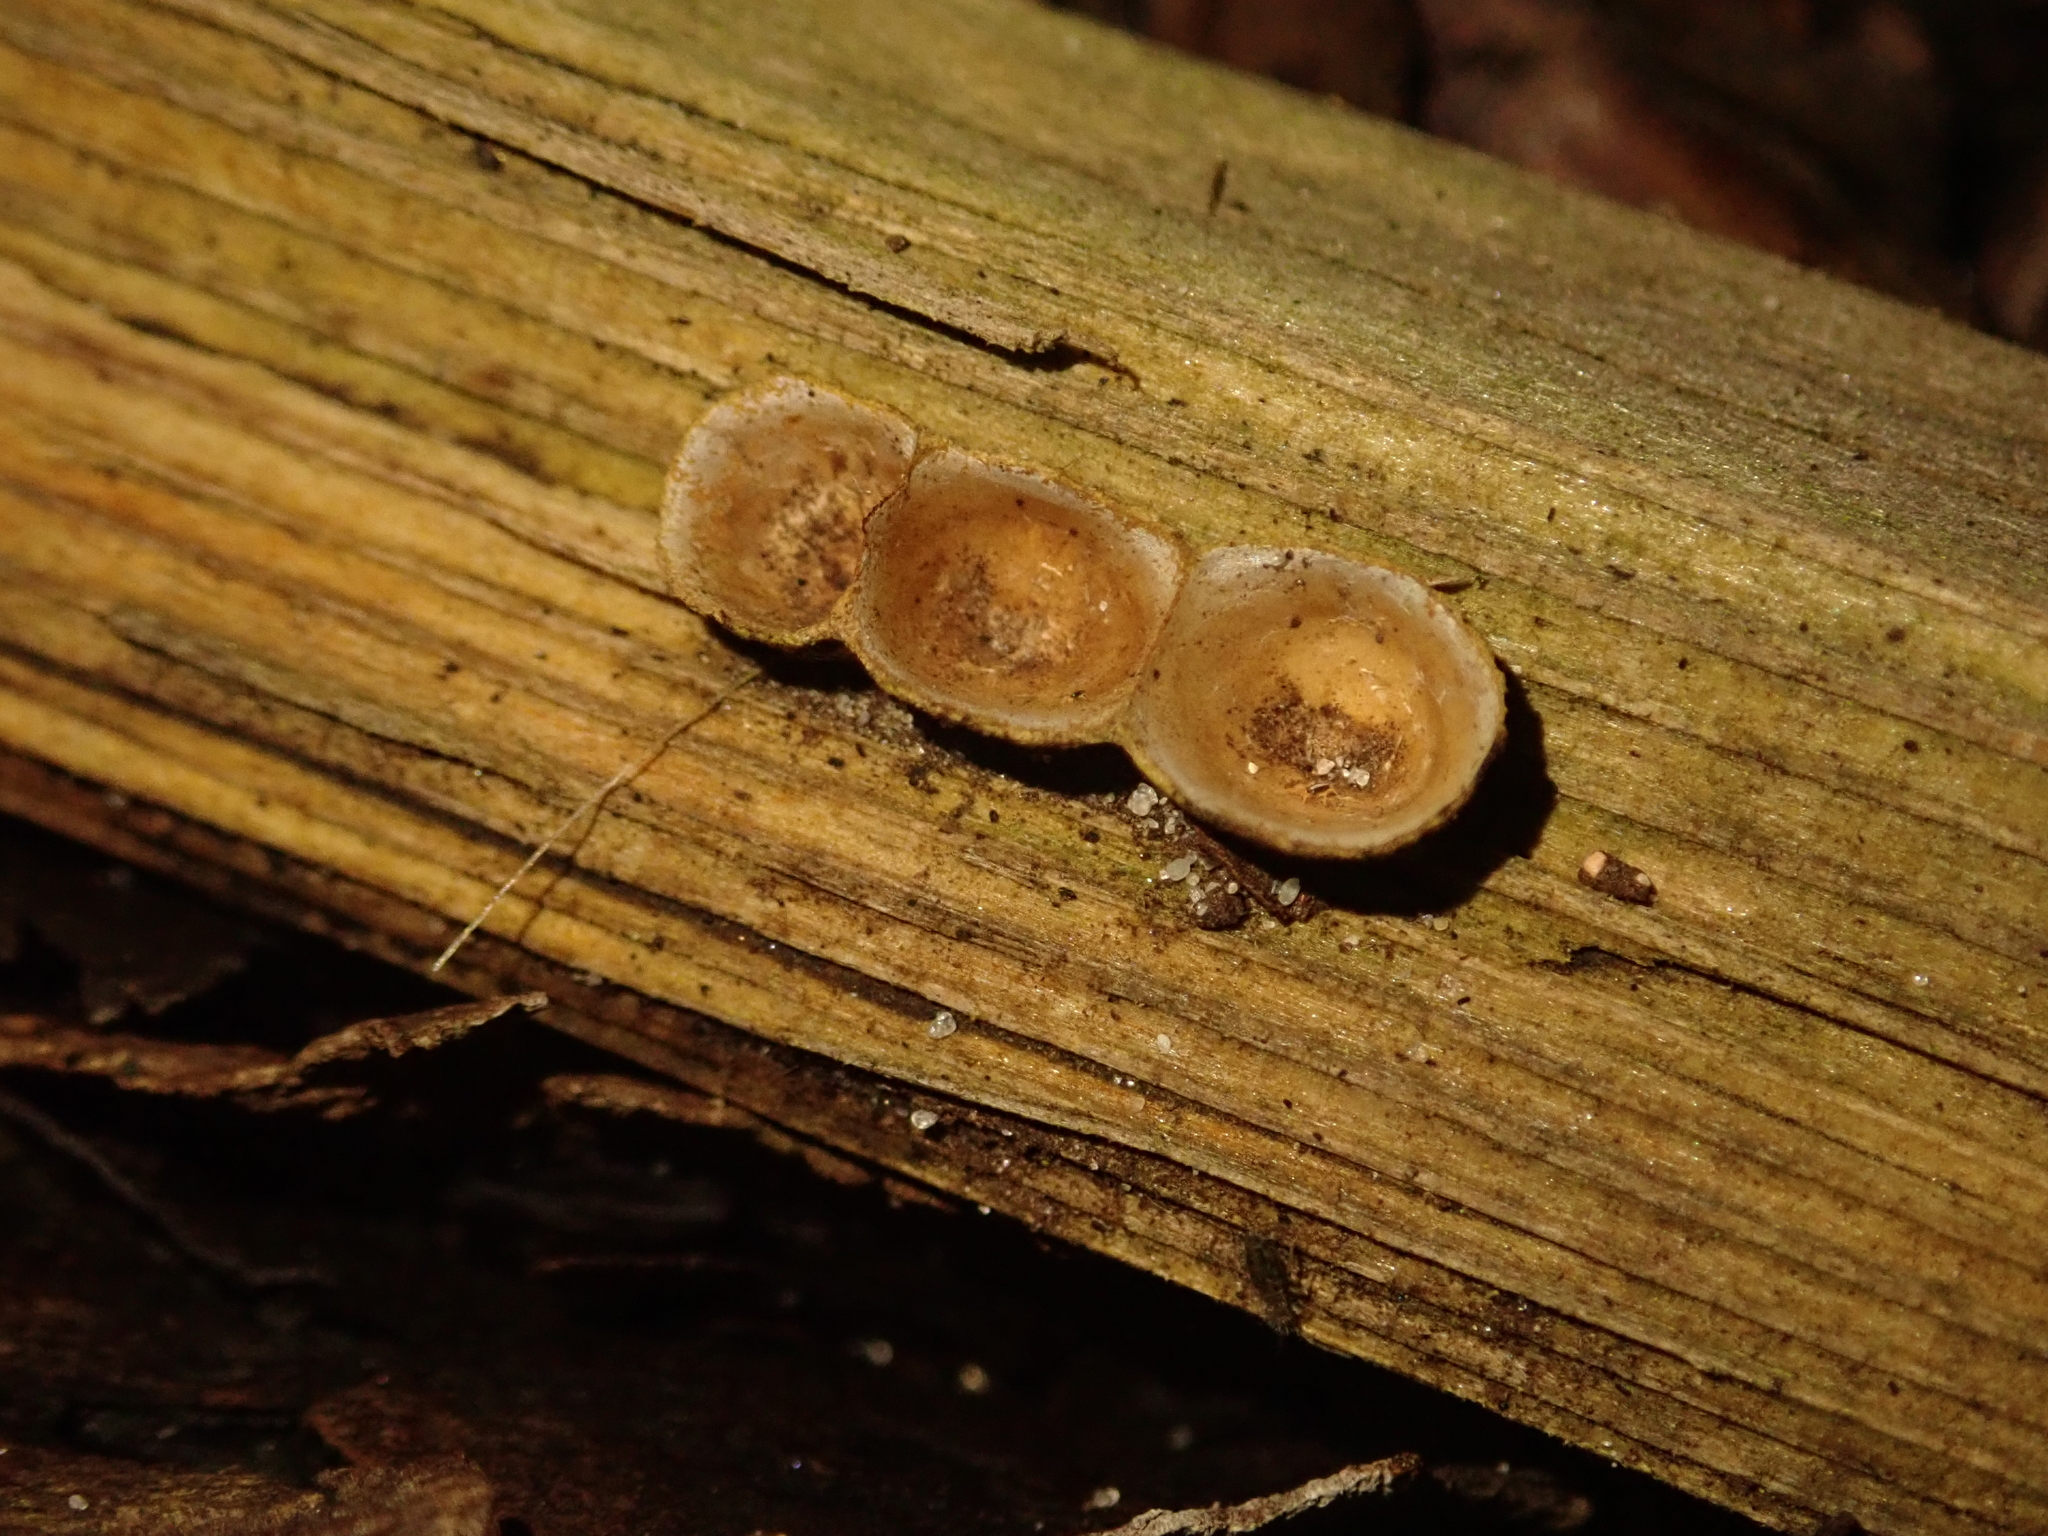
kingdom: Fungi
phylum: Basidiomycota
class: Agaricomycetes
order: Agaricales
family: Nidulariaceae
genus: Crucibulum
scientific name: Crucibulum laeve
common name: Common bird's nest
